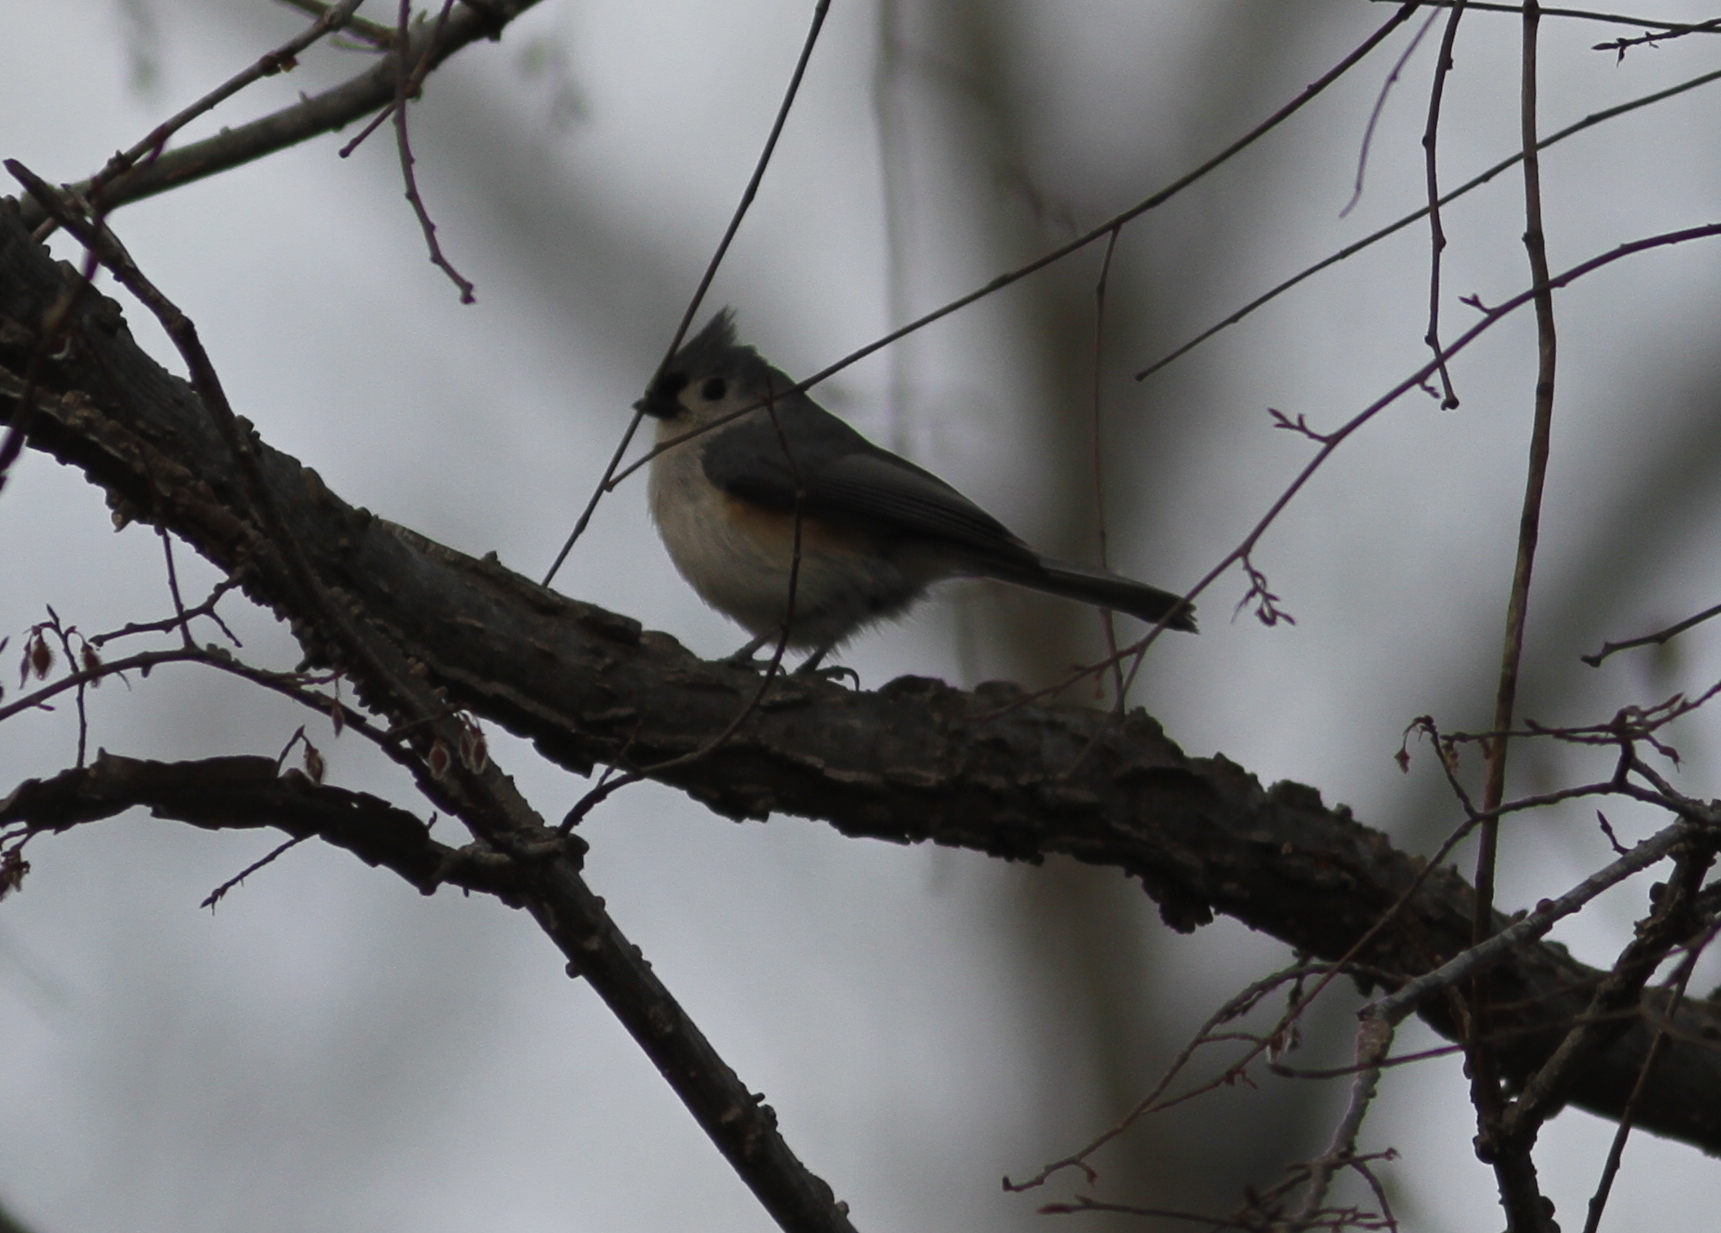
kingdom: Animalia
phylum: Chordata
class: Aves
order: Passeriformes
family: Paridae
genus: Baeolophus
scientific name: Baeolophus bicolor
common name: Tufted titmouse
